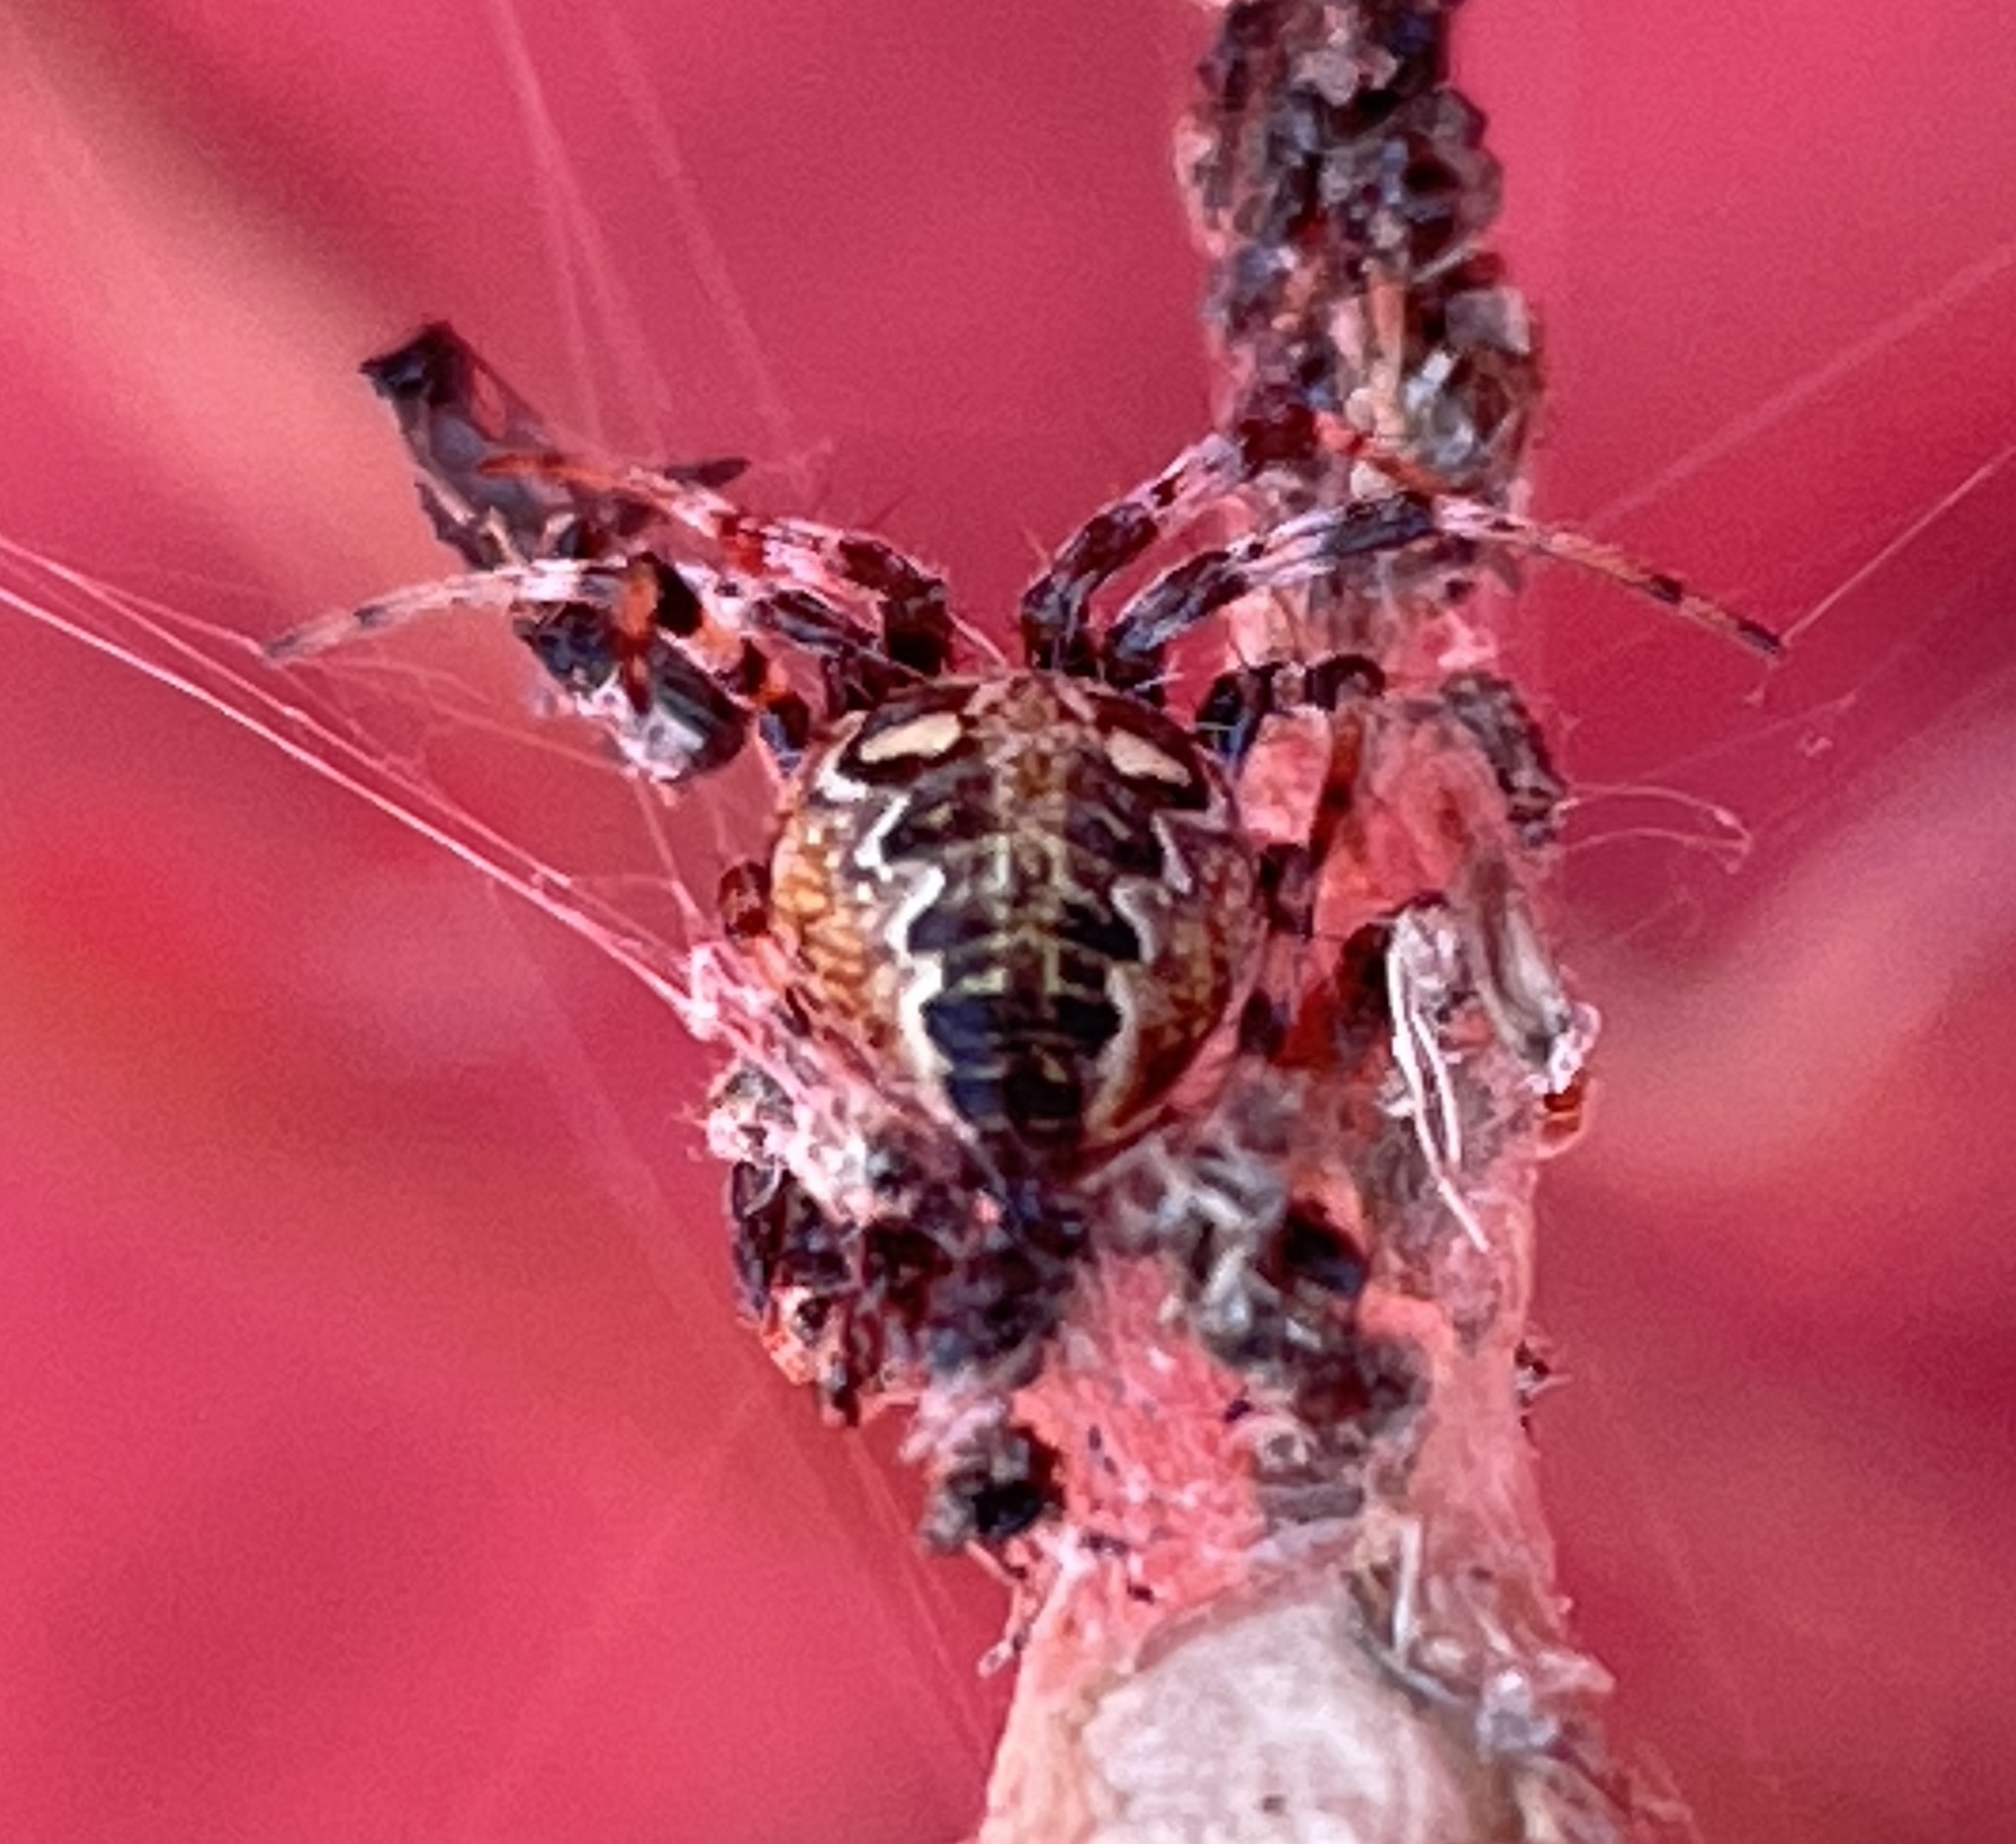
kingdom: Animalia
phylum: Arthropoda
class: Arachnida
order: Araneae
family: Araneidae
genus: Neoscona
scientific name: Neoscona oaxacensis
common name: Orb weavers
